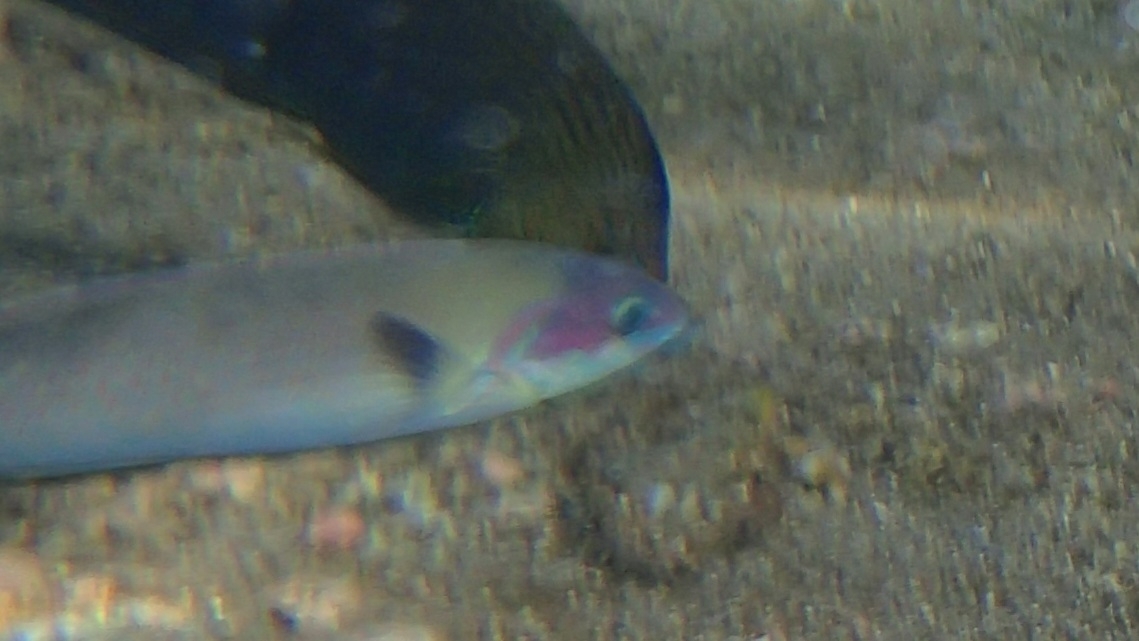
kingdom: Animalia
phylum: Chordata
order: Perciformes
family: Labridae
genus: Thalassoma
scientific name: Thalassoma genivittatum
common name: Red-cheek wrasse
